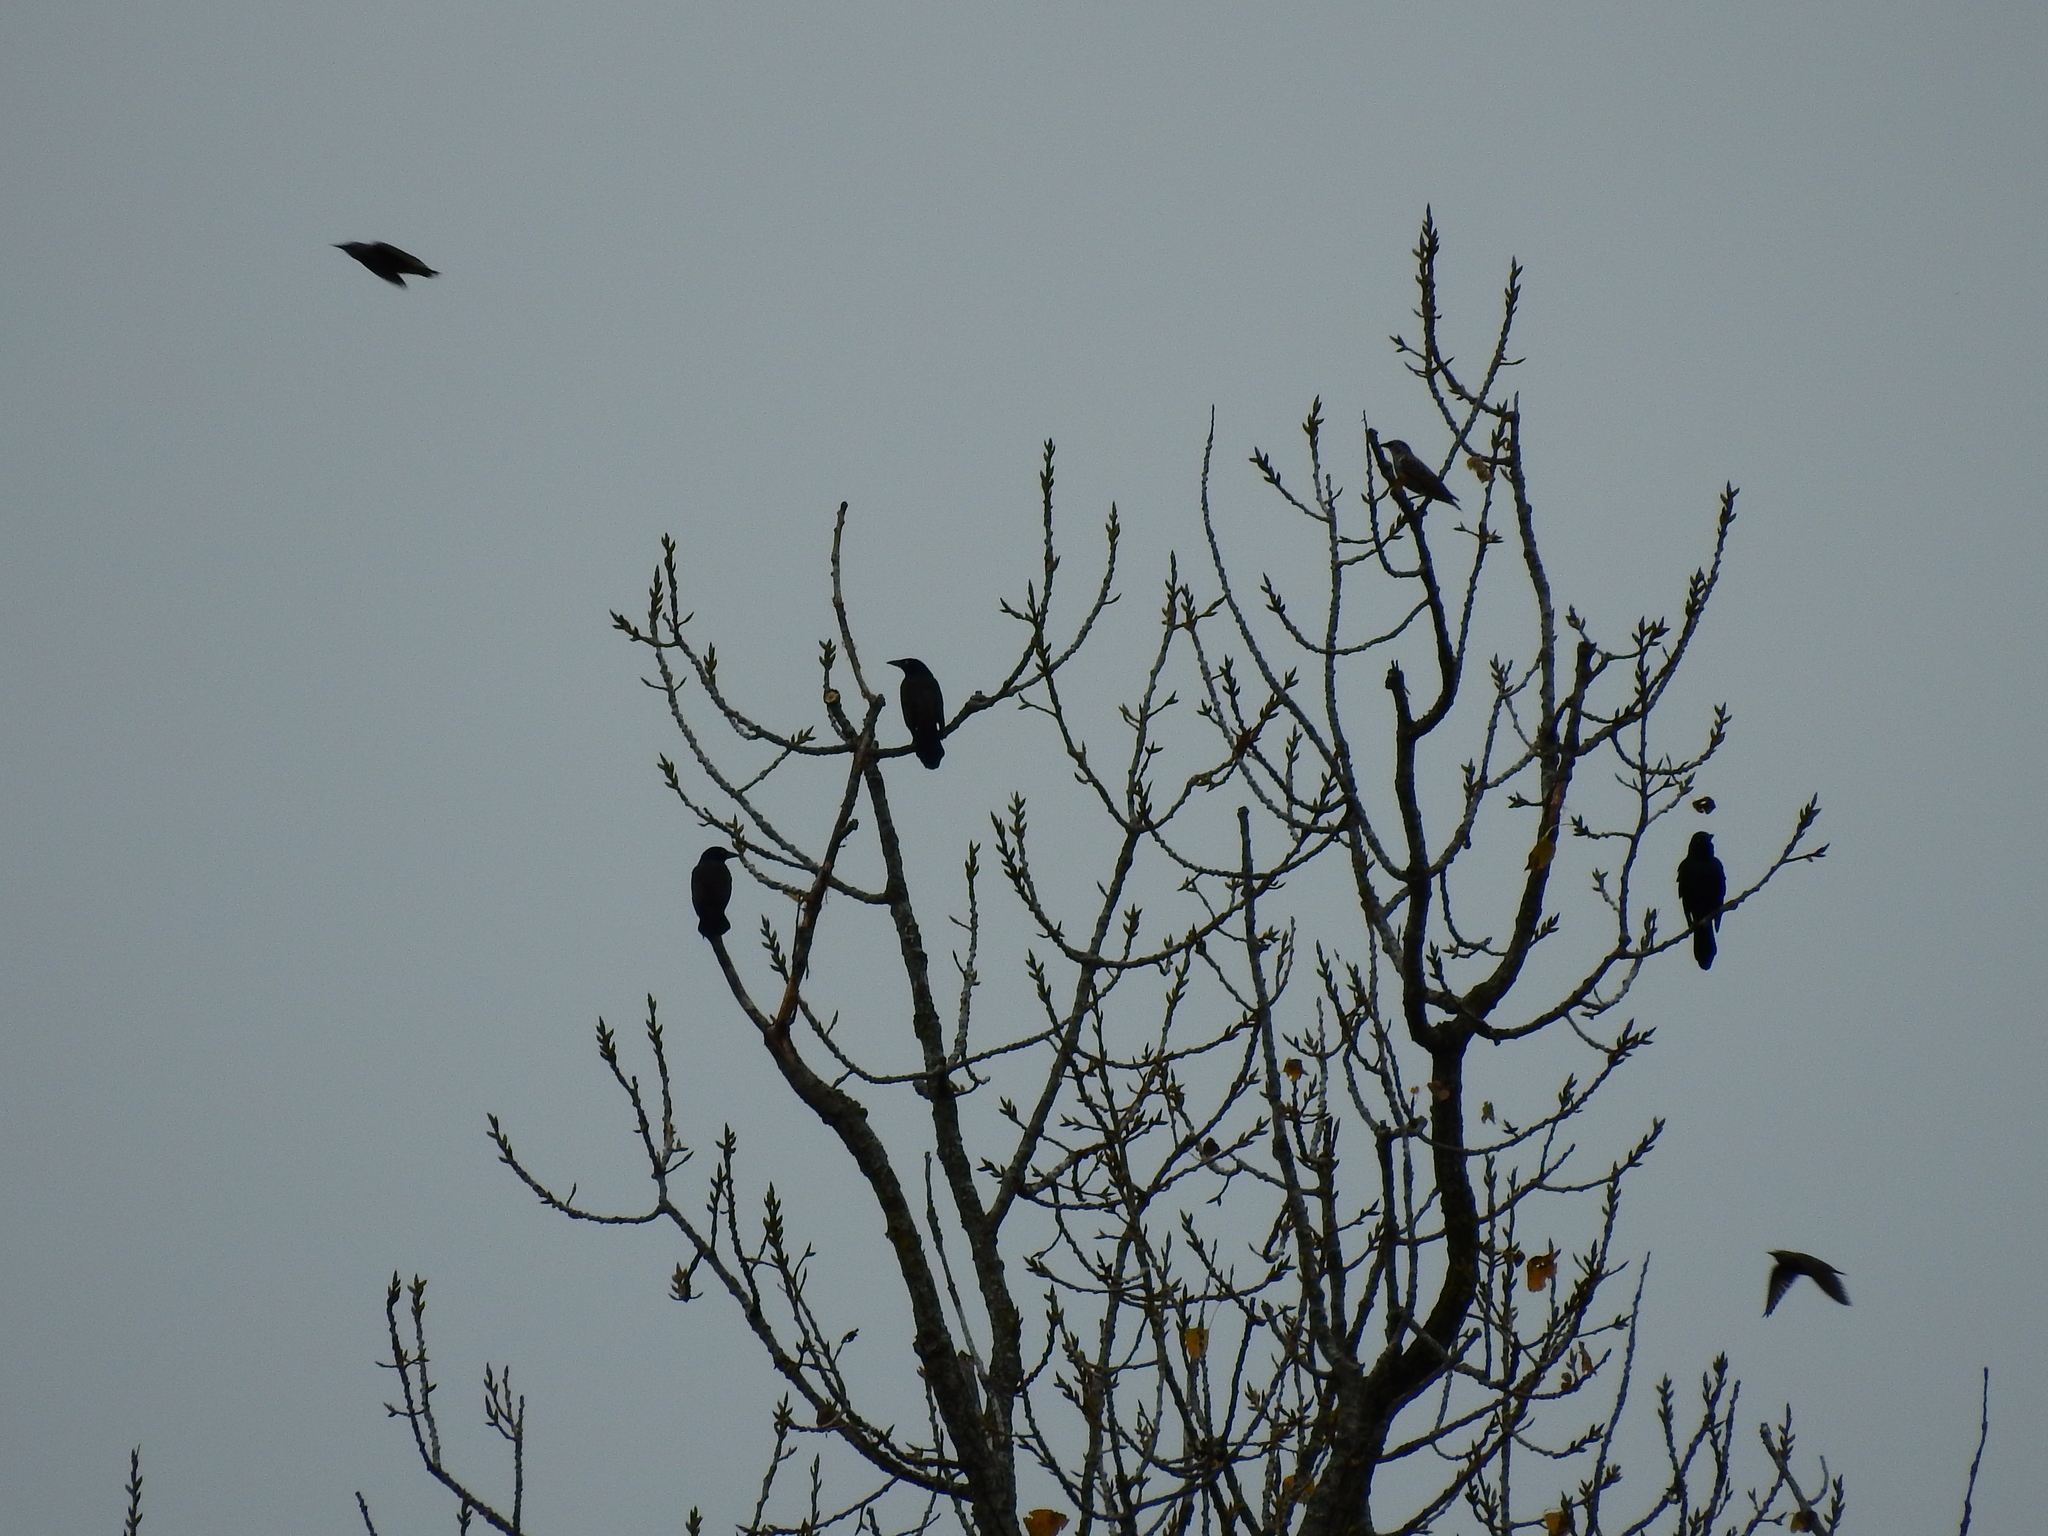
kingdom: Animalia
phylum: Chordata
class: Aves
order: Passeriformes
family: Icteridae
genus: Quiscalus
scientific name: Quiscalus quiscula
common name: Common grackle
